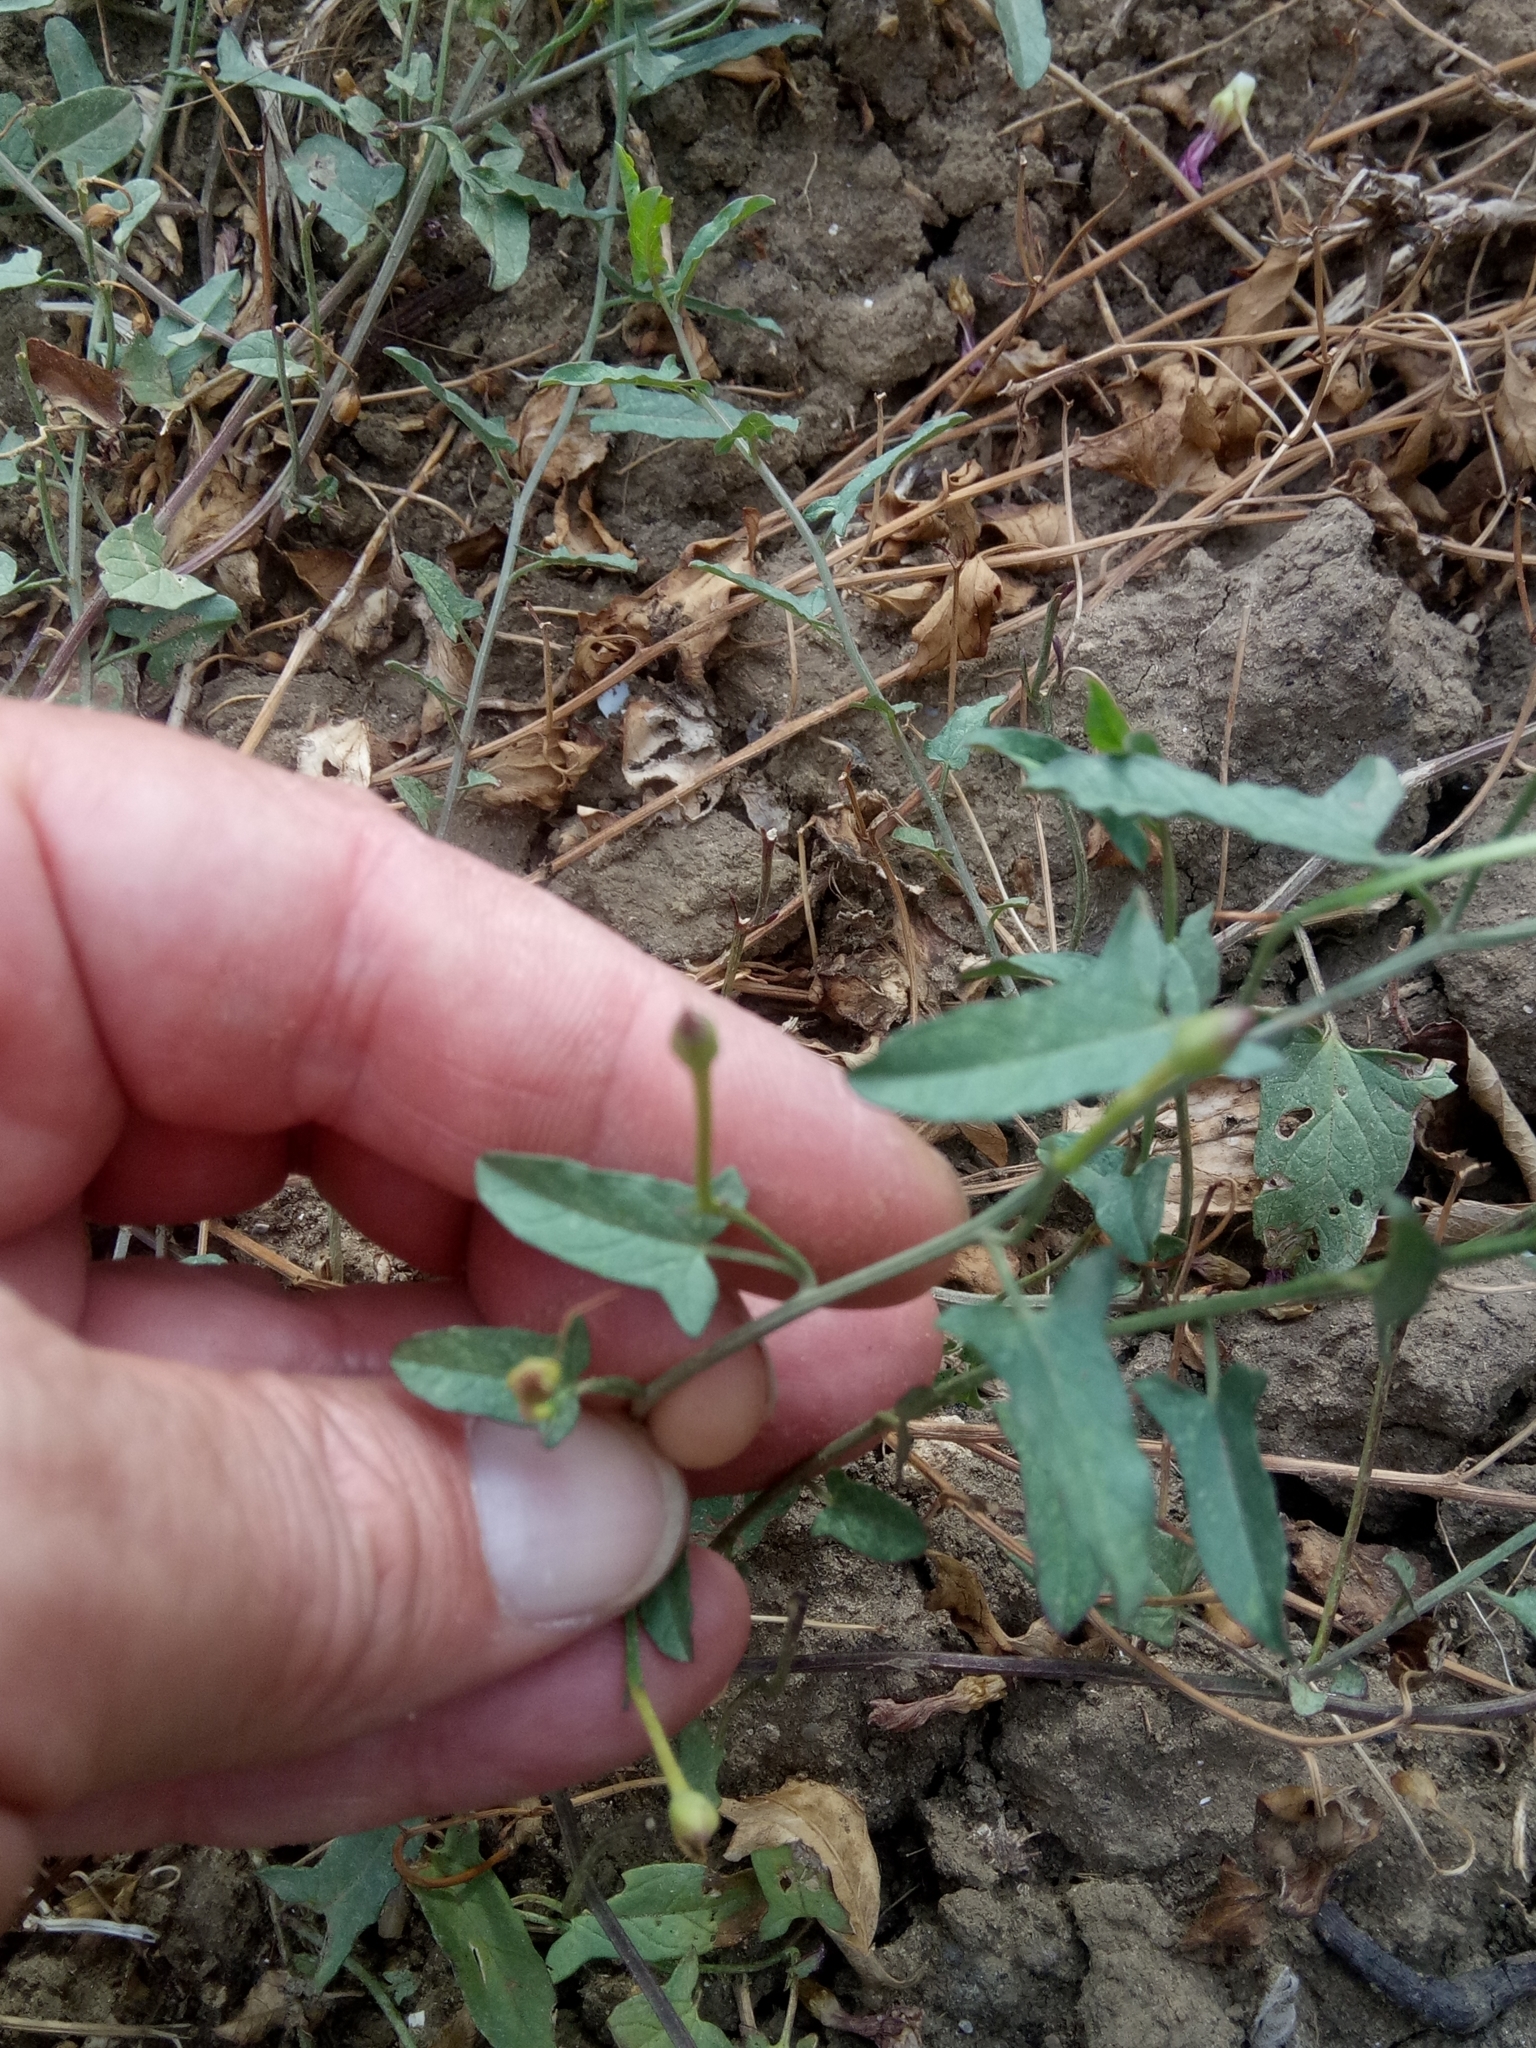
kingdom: Plantae
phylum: Tracheophyta
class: Magnoliopsida
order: Solanales
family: Convolvulaceae
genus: Convolvulus
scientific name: Convolvulus arvensis
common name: Field bindweed
